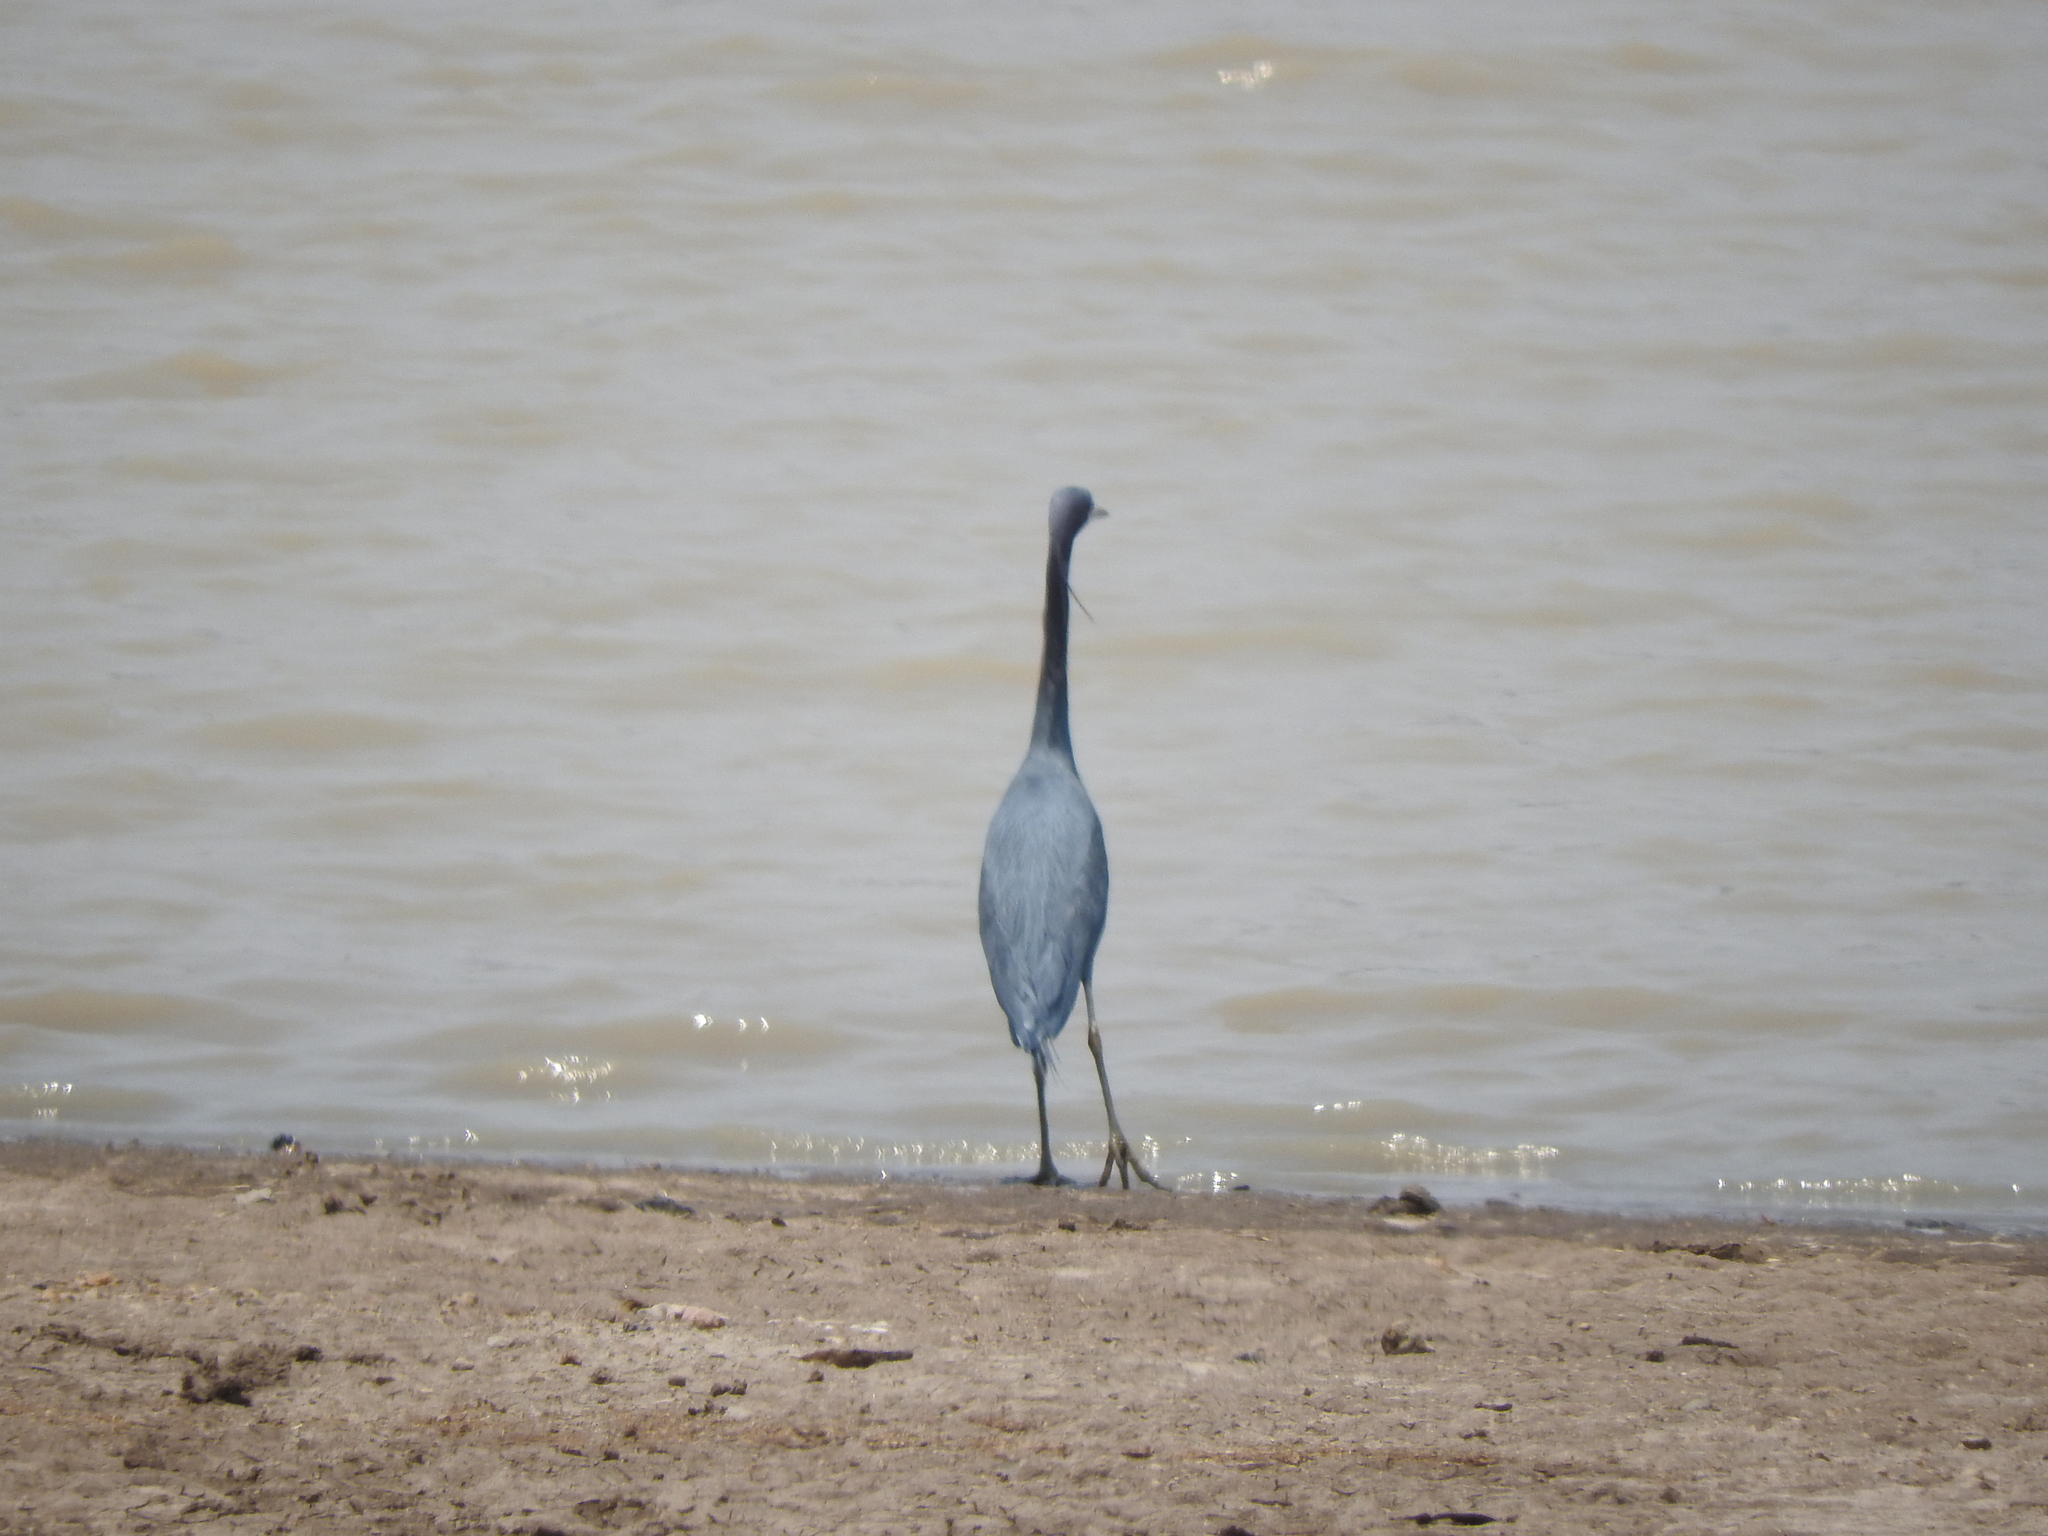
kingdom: Animalia
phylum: Chordata
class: Aves
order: Pelecaniformes
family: Ardeidae
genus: Egretta
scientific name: Egretta caerulea
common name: Little blue heron
